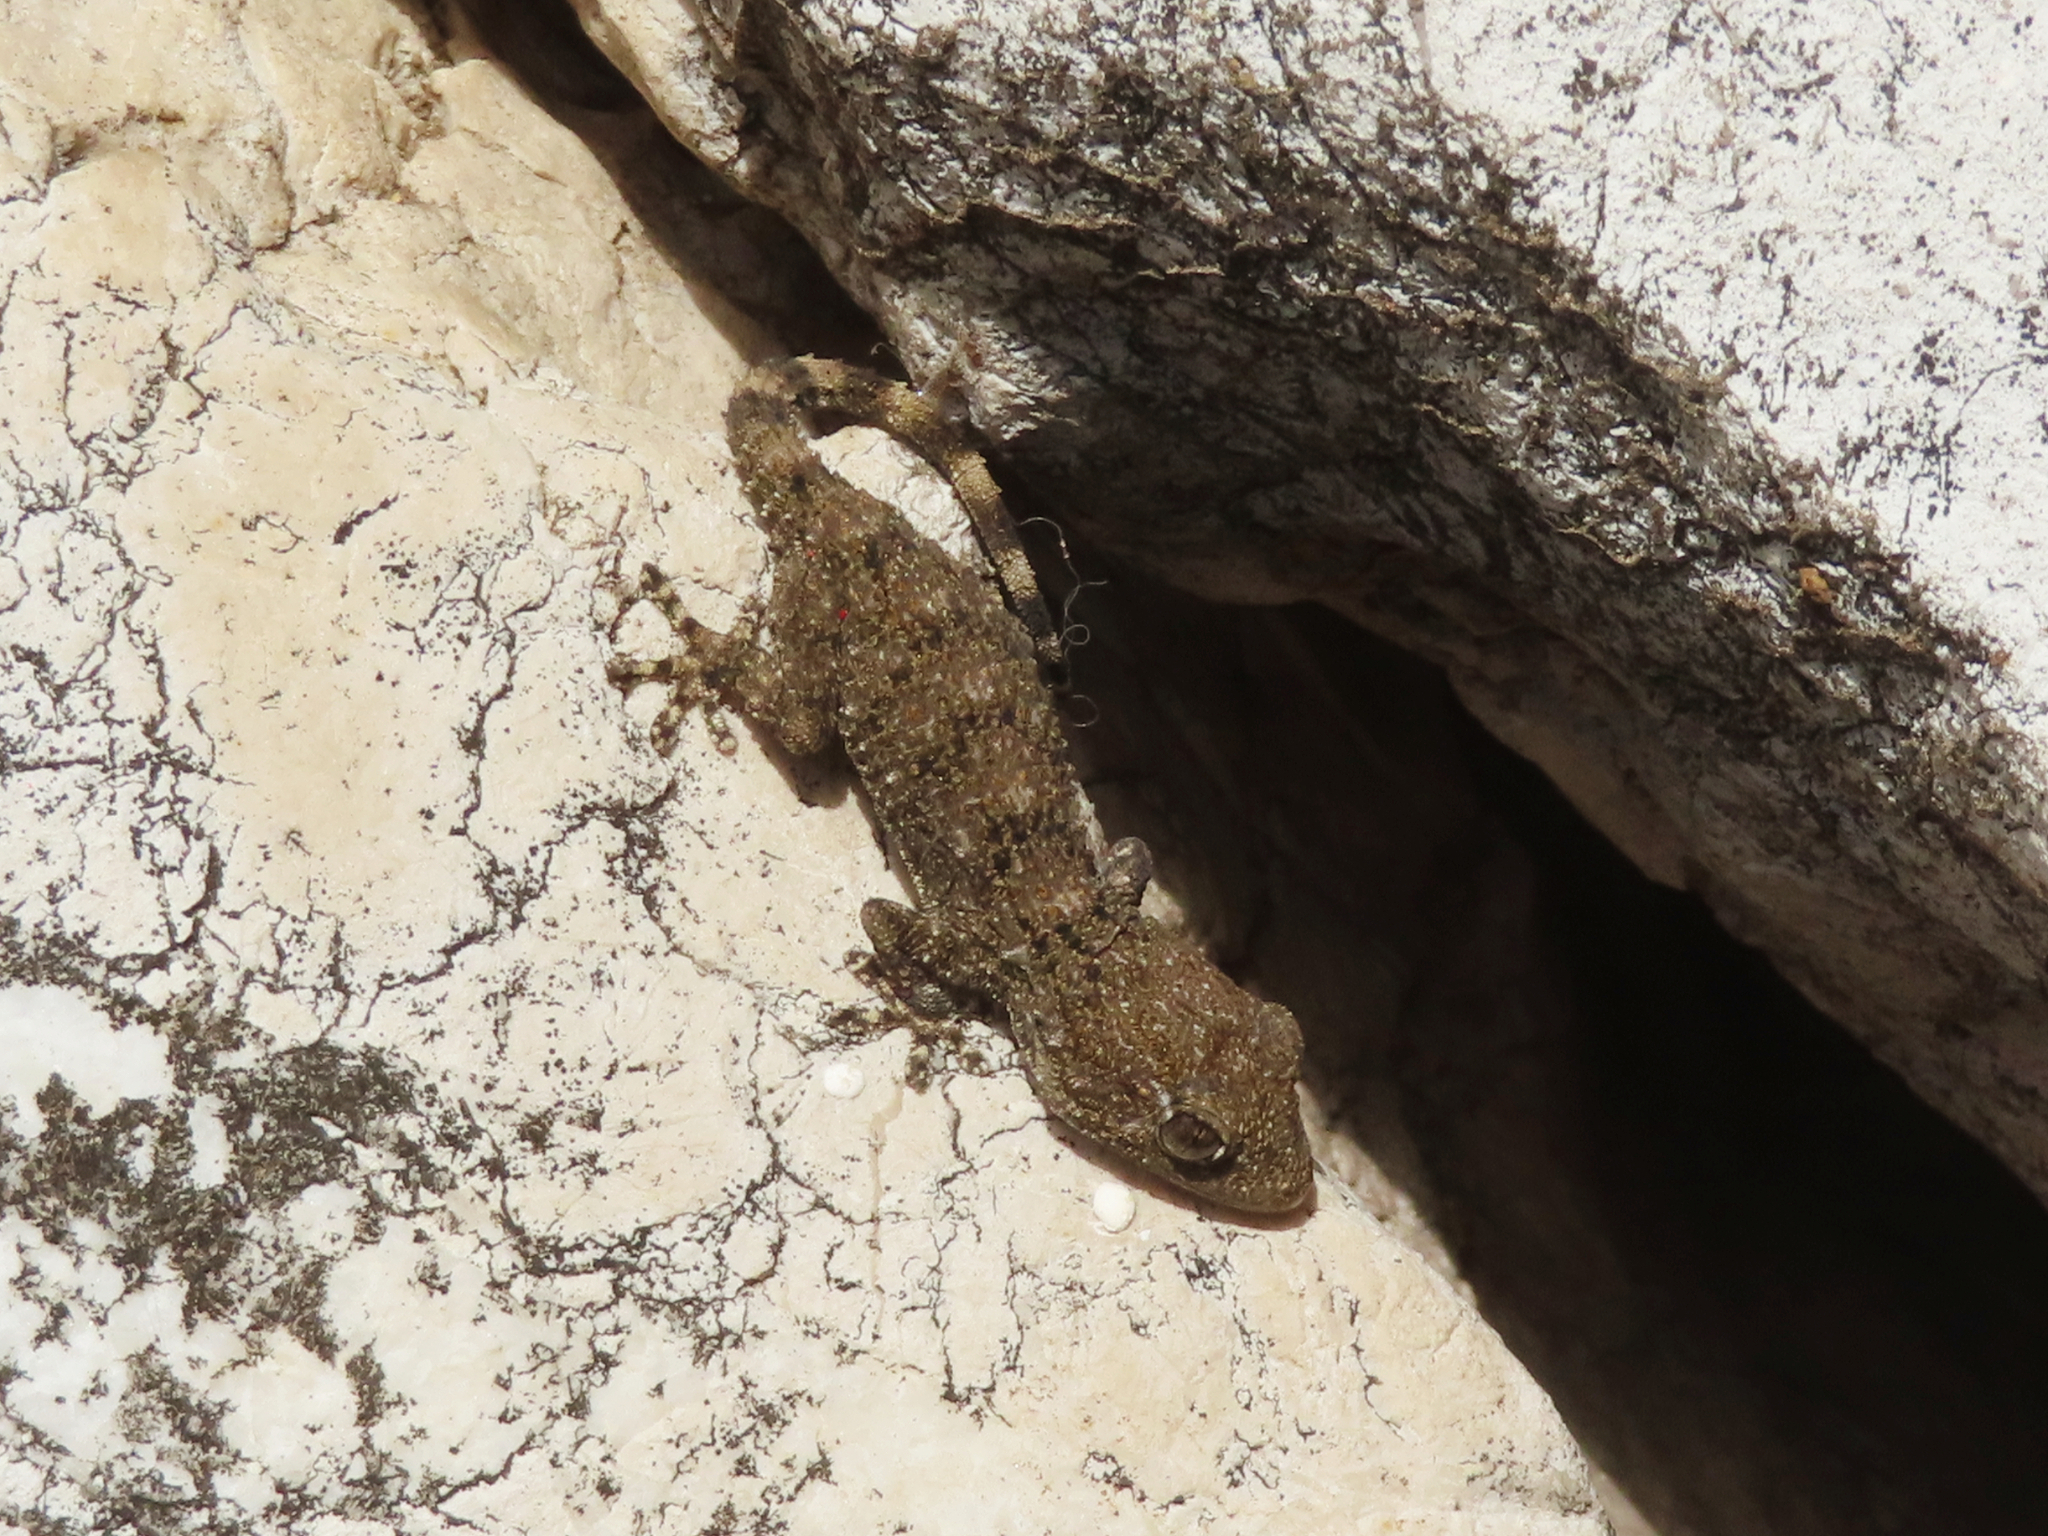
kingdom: Animalia
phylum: Chordata
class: Squamata
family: Phyllodactylidae
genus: Tarentola
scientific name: Tarentola mauritanica
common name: Moorish gecko
